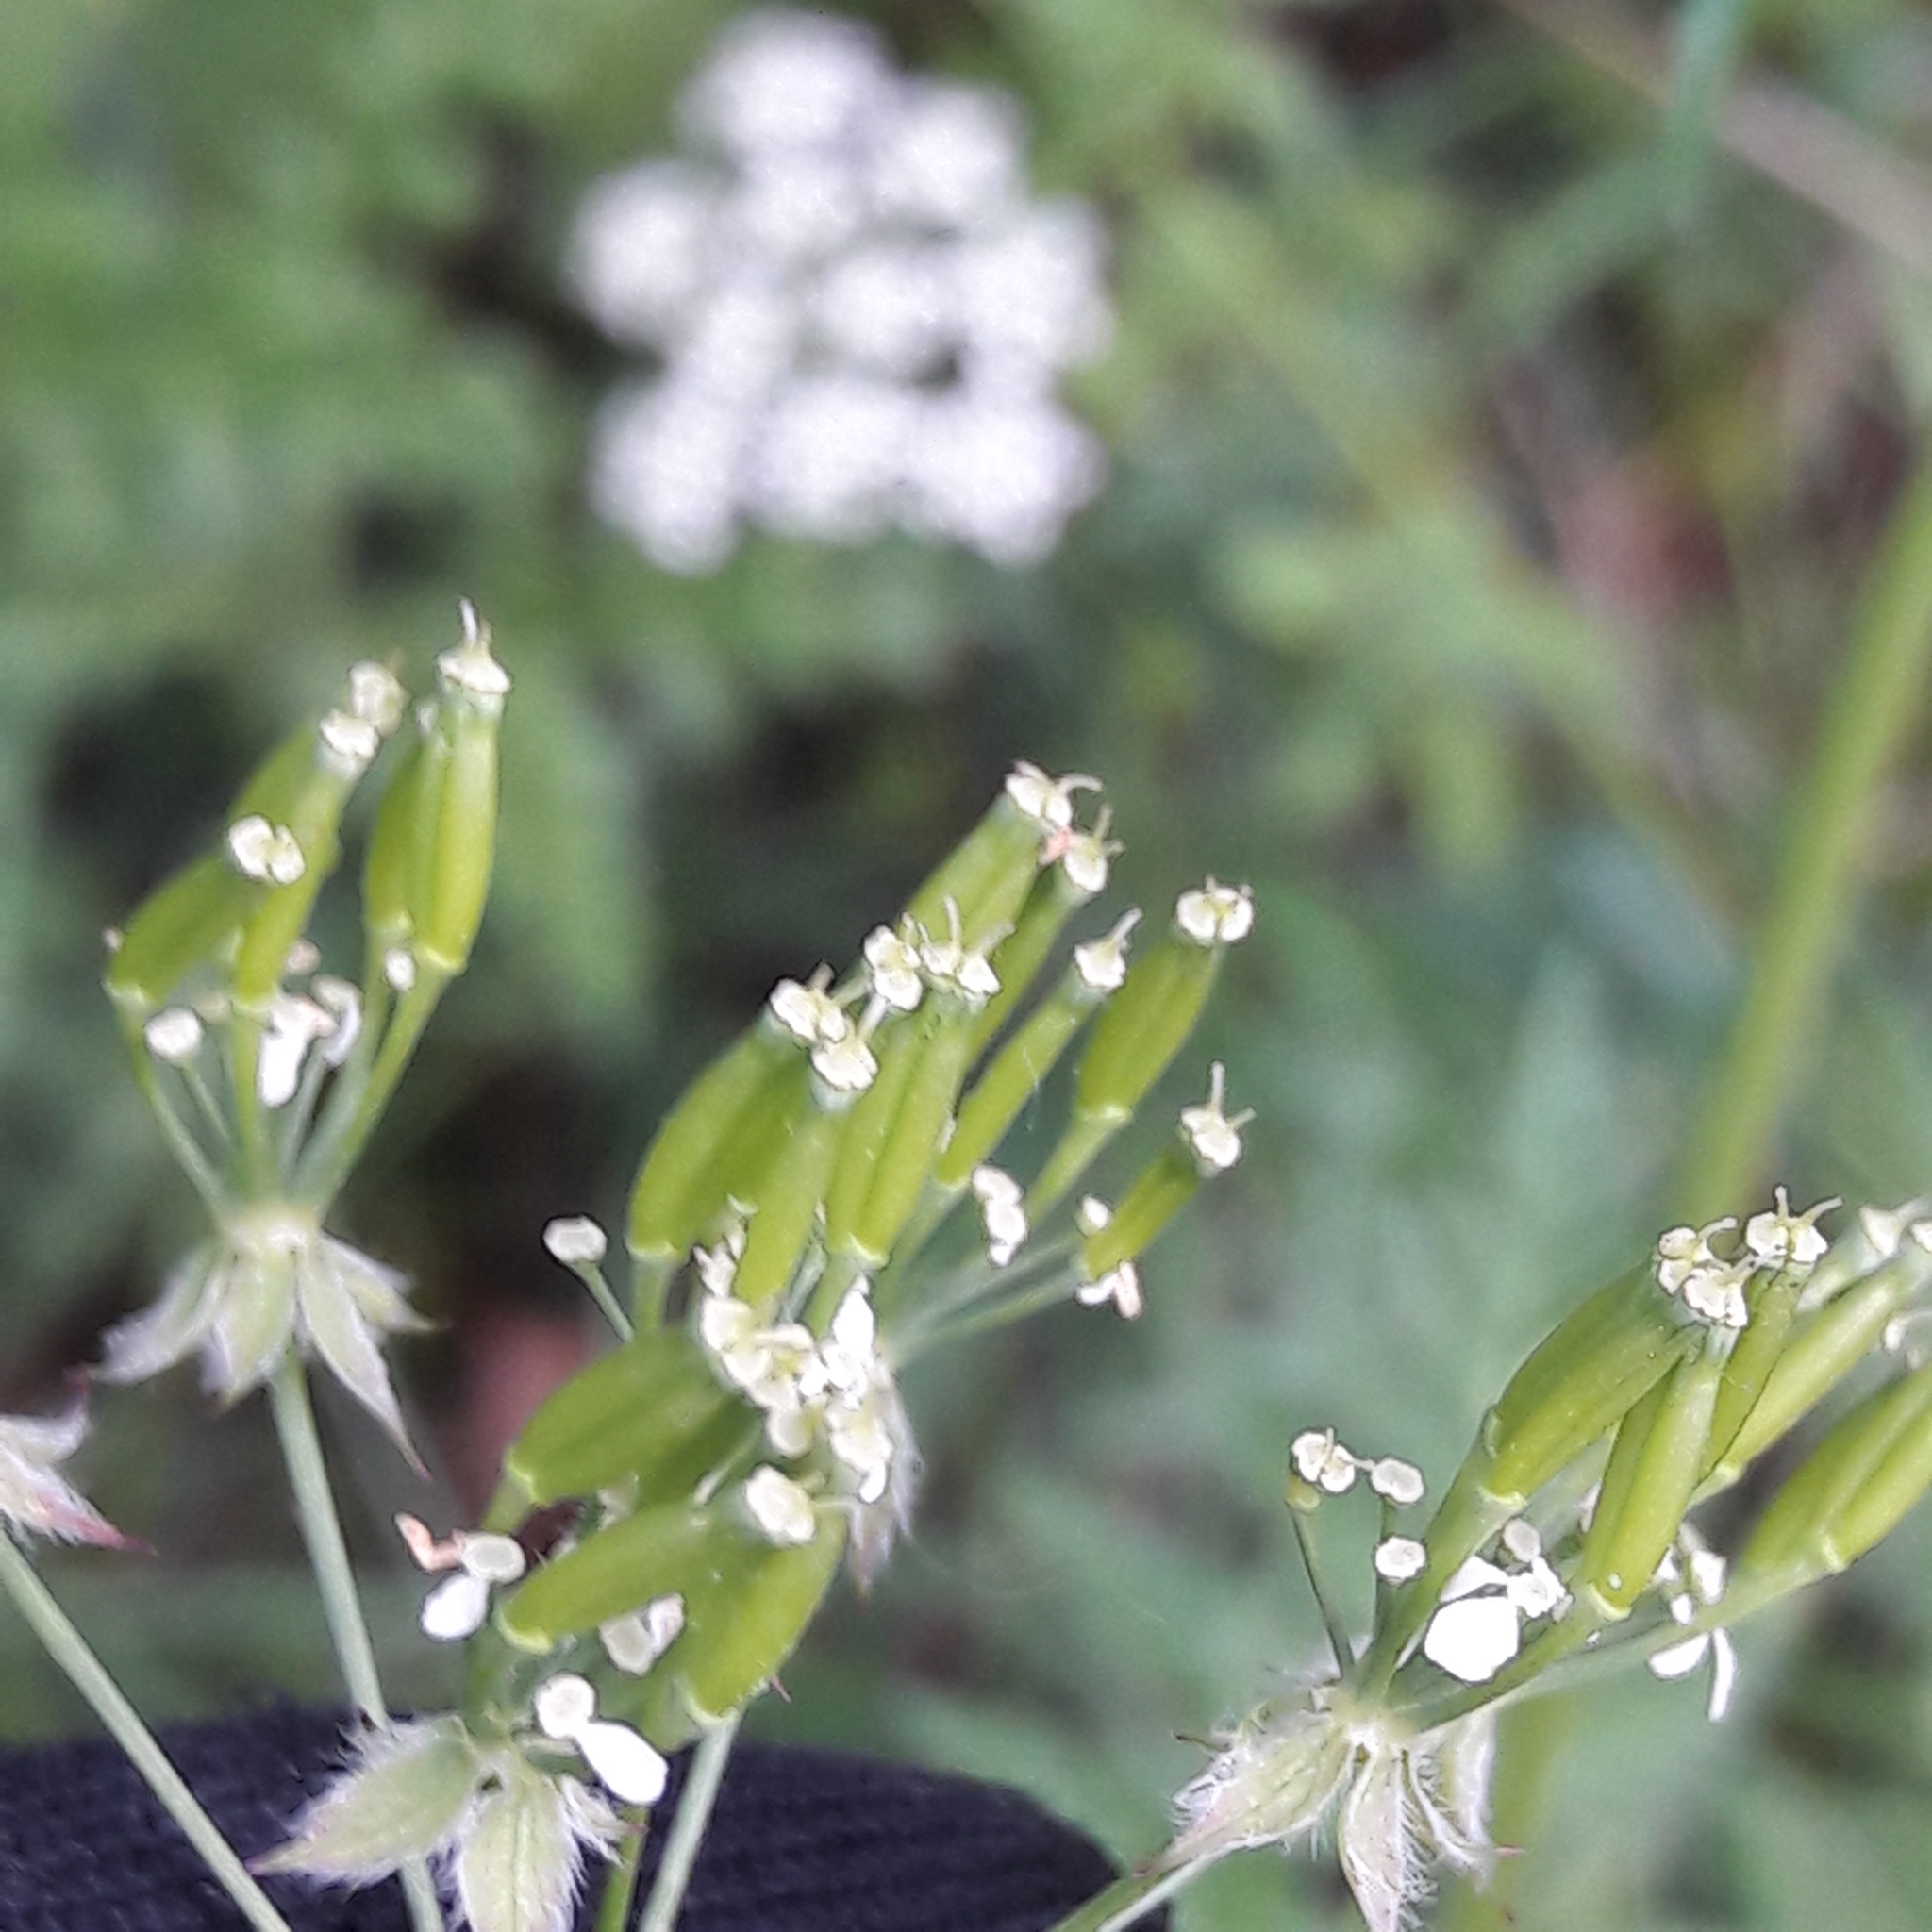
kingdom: Plantae
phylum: Tracheophyta
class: Magnoliopsida
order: Apiales
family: Apiaceae
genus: Anthriscus
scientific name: Anthriscus sylvestris
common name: Cow parsley
